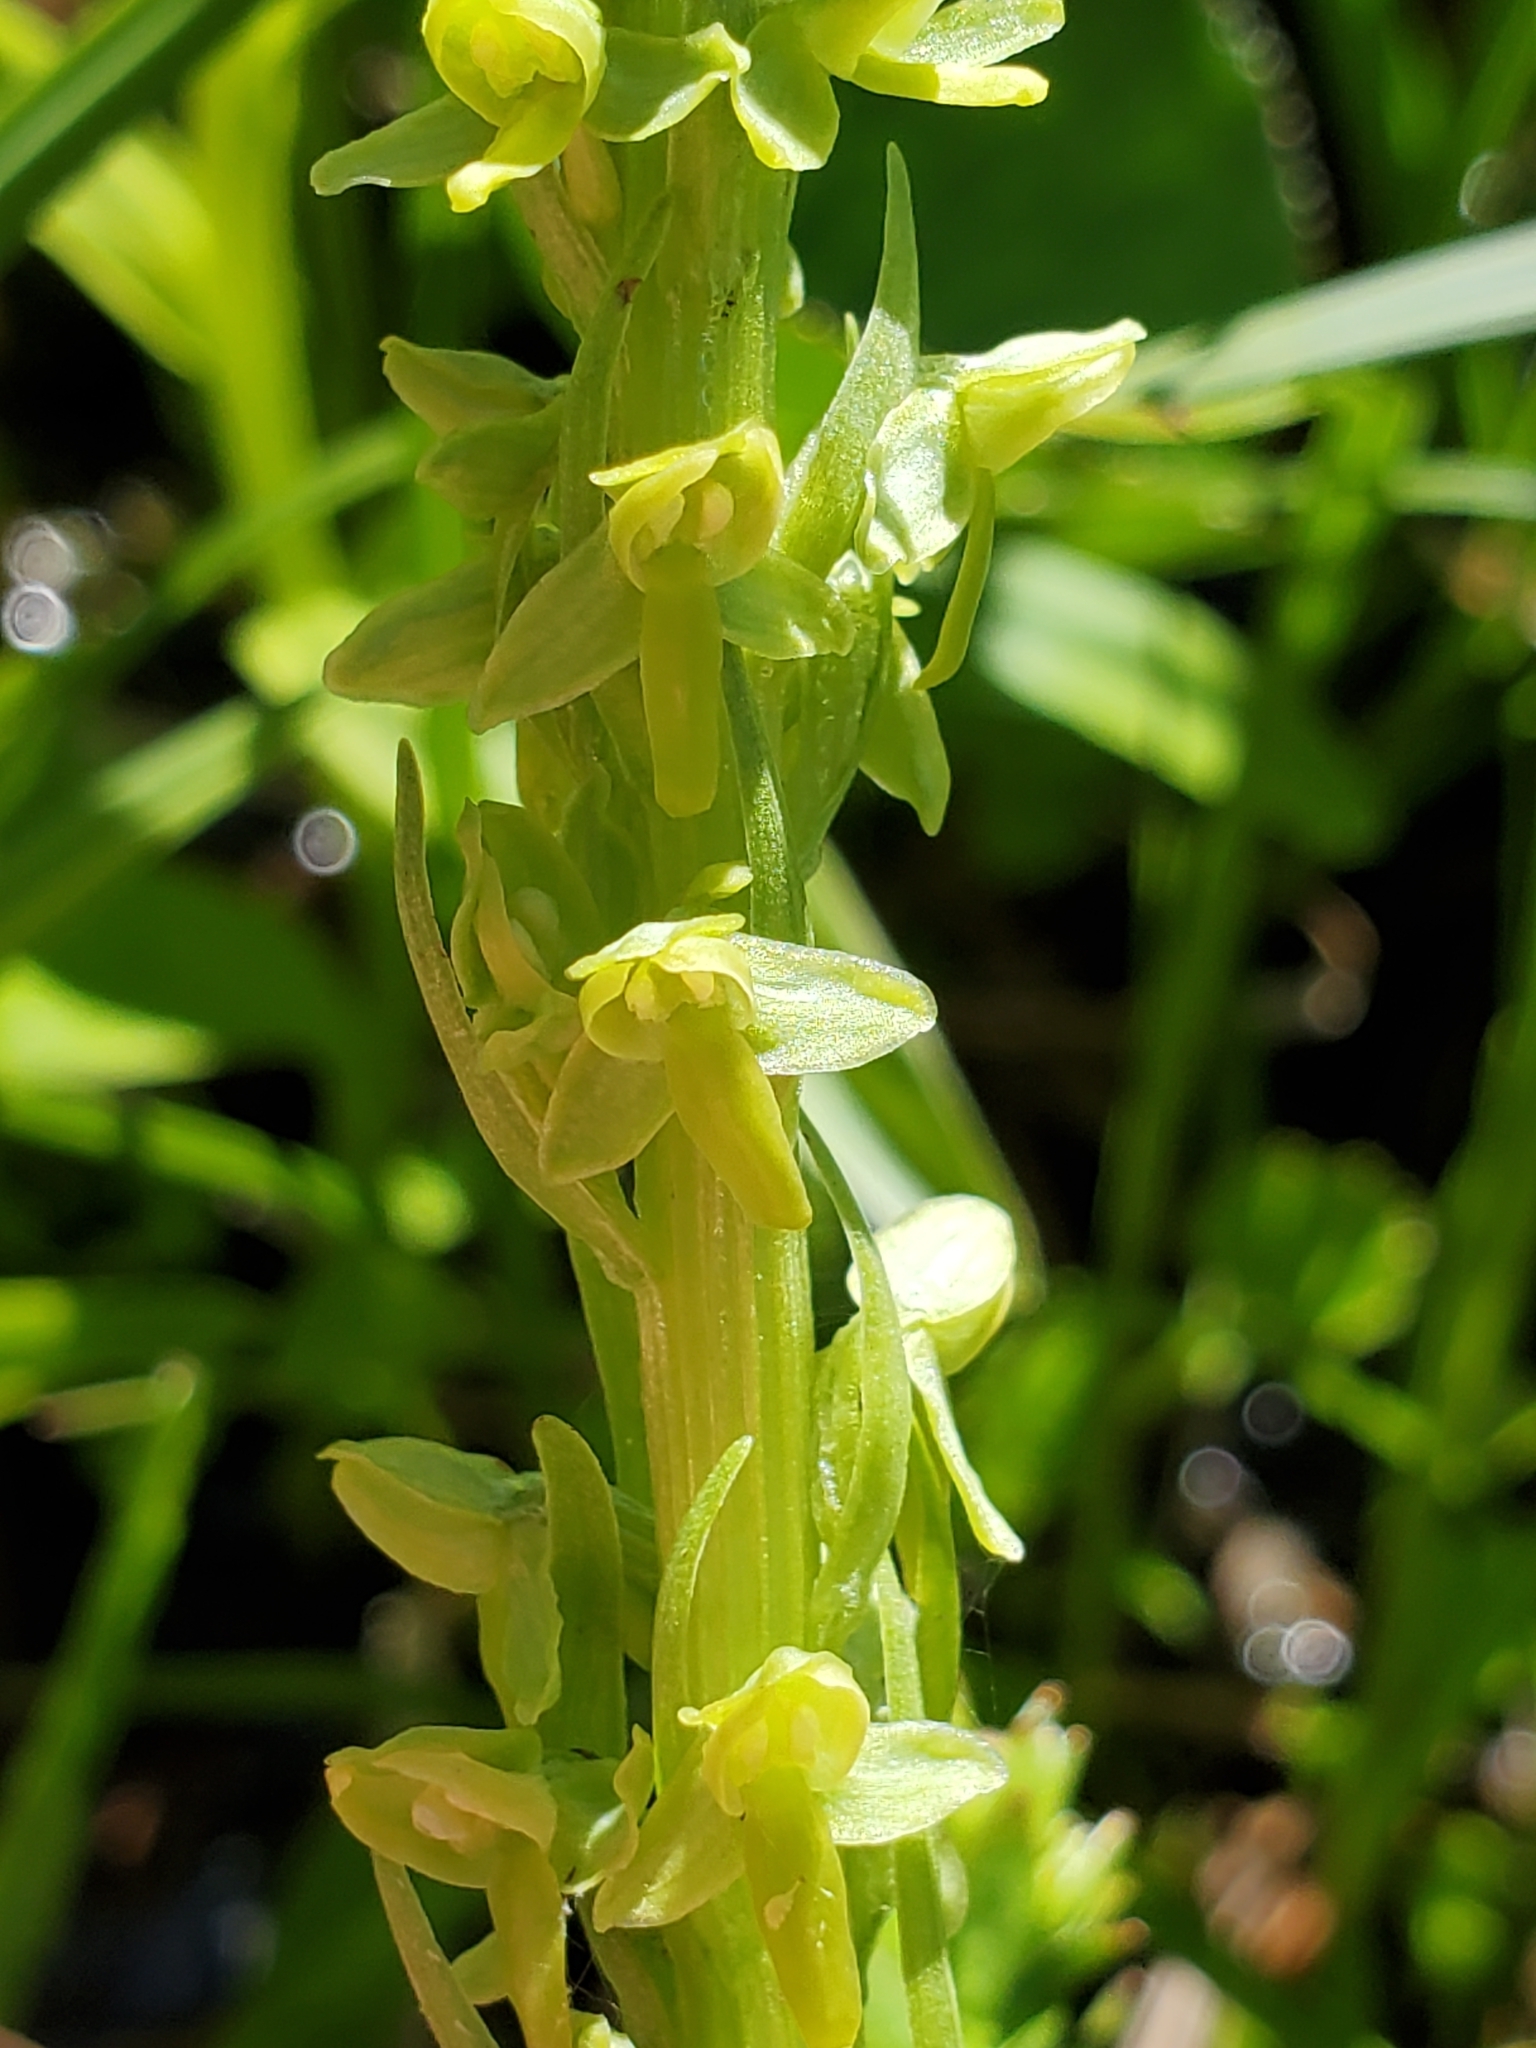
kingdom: Plantae
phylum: Tracheophyta
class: Liliopsida
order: Asparagales
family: Orchidaceae
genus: Platanthera
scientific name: Platanthera stricta
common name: Slender bog orchid
